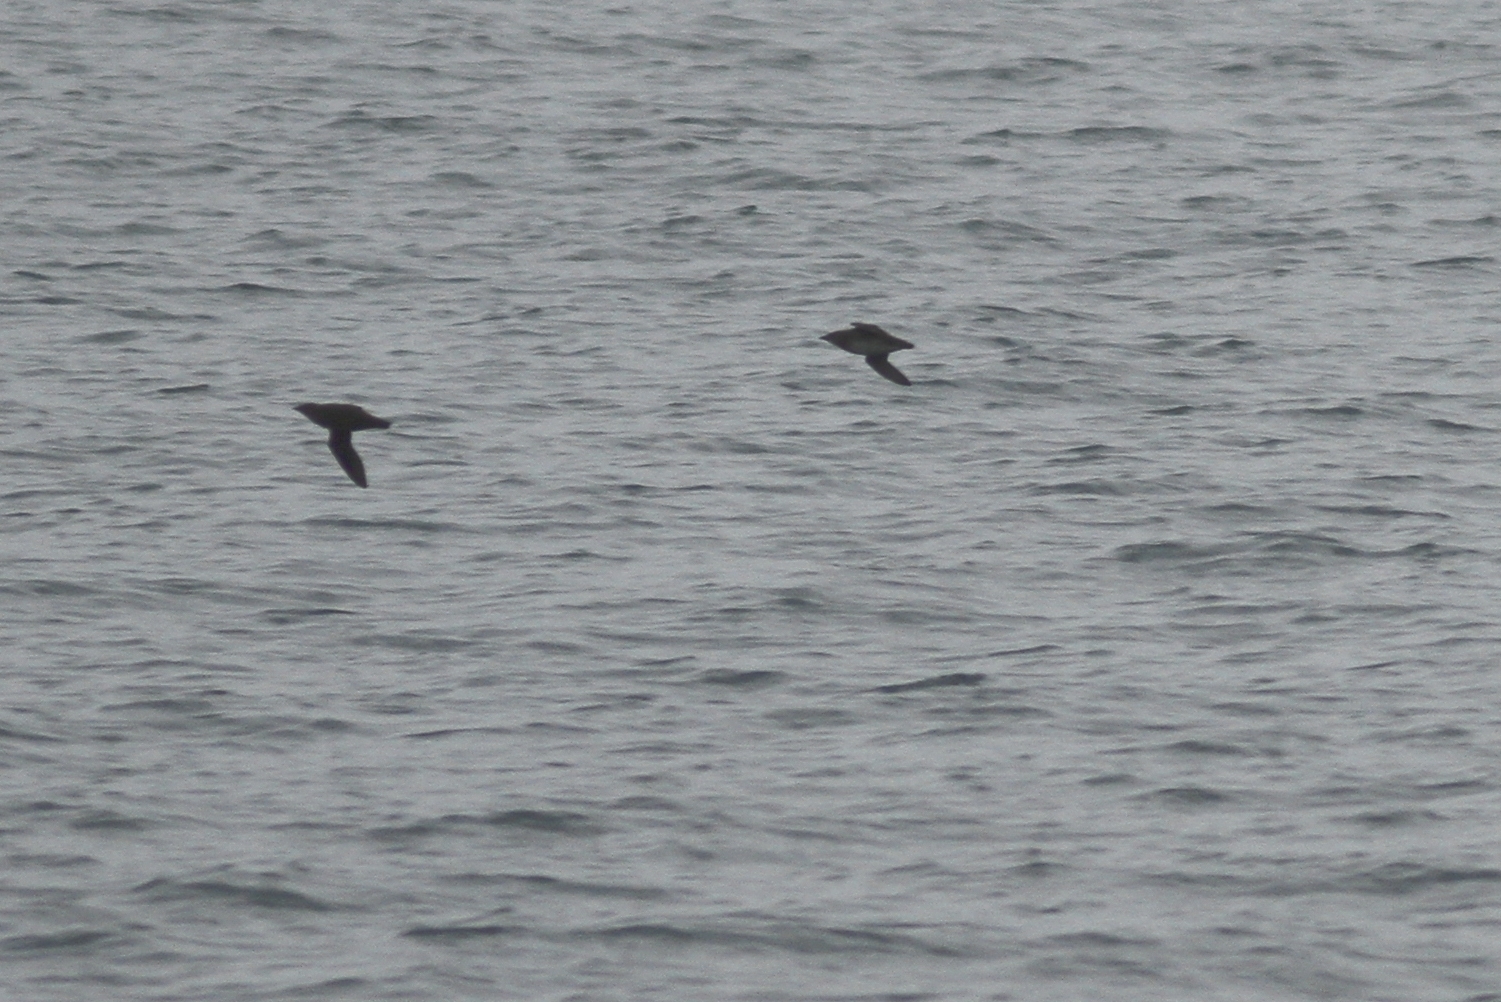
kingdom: Animalia
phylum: Chordata
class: Aves
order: Charadriiformes
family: Alcidae
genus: Brachyramphus
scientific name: Brachyramphus marmoratus
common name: Marbled murrelet
